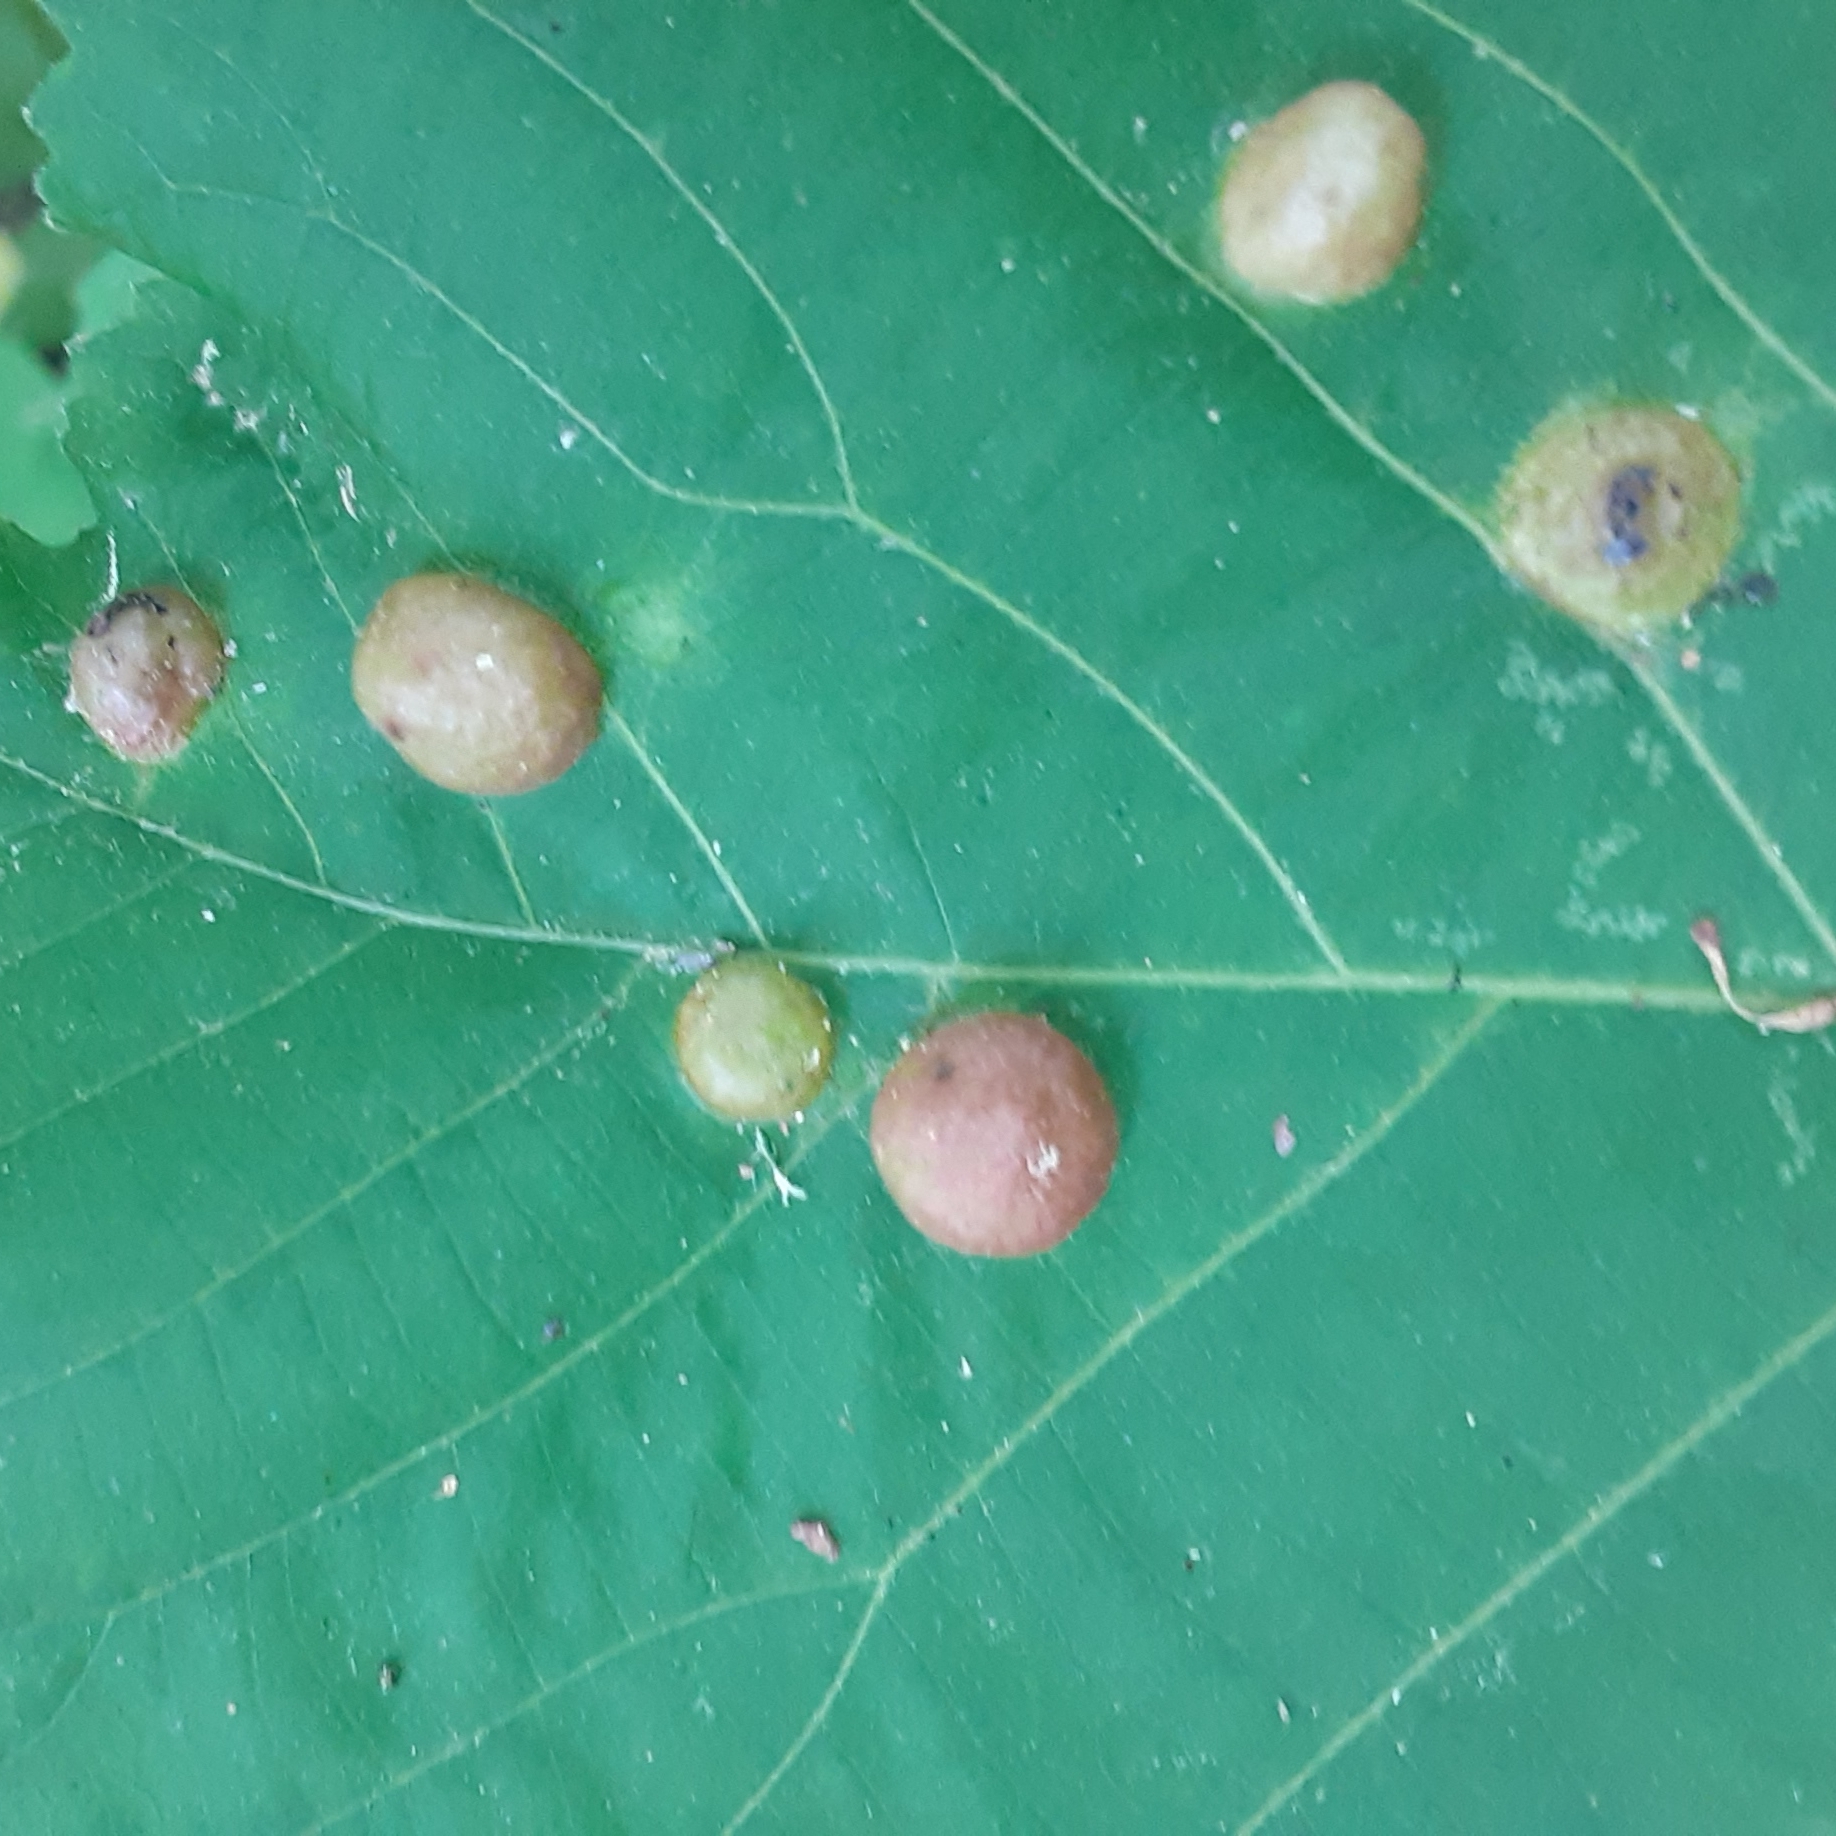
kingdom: Animalia
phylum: Arthropoda
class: Insecta
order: Hemiptera
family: Phylloxeridae
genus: Phylloxera
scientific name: Phylloxera caryae-globuli
